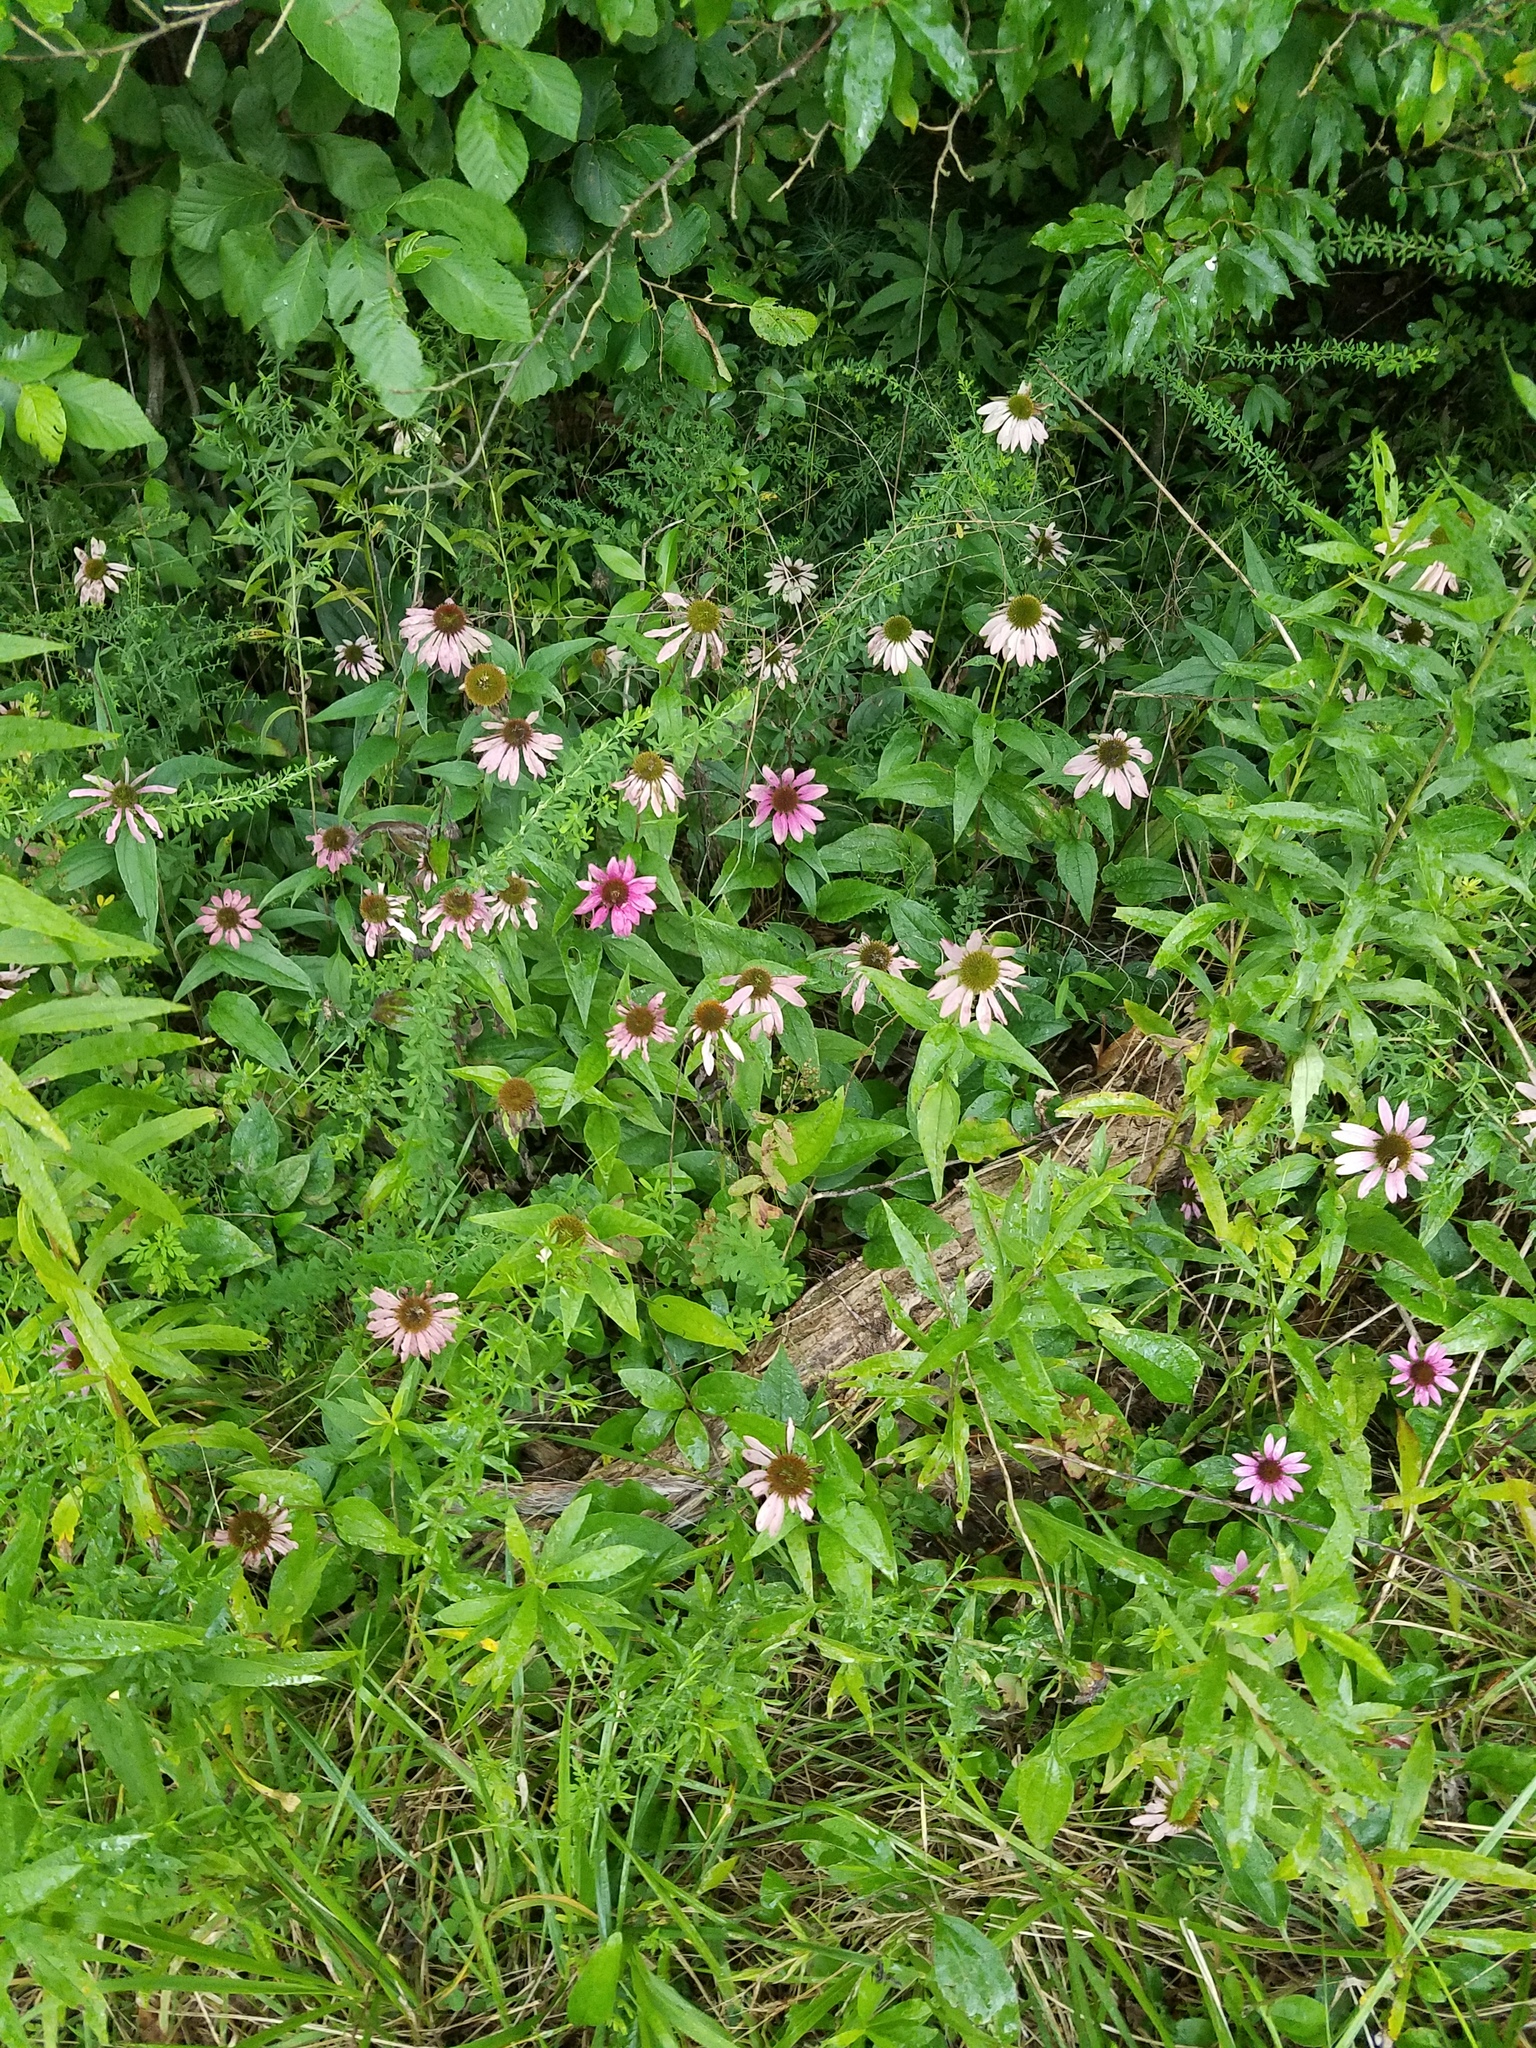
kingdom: Plantae
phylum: Tracheophyta
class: Magnoliopsida
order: Asterales
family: Asteraceae
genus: Echinacea
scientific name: Echinacea purpurea
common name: Broad-leaved purple coneflower
